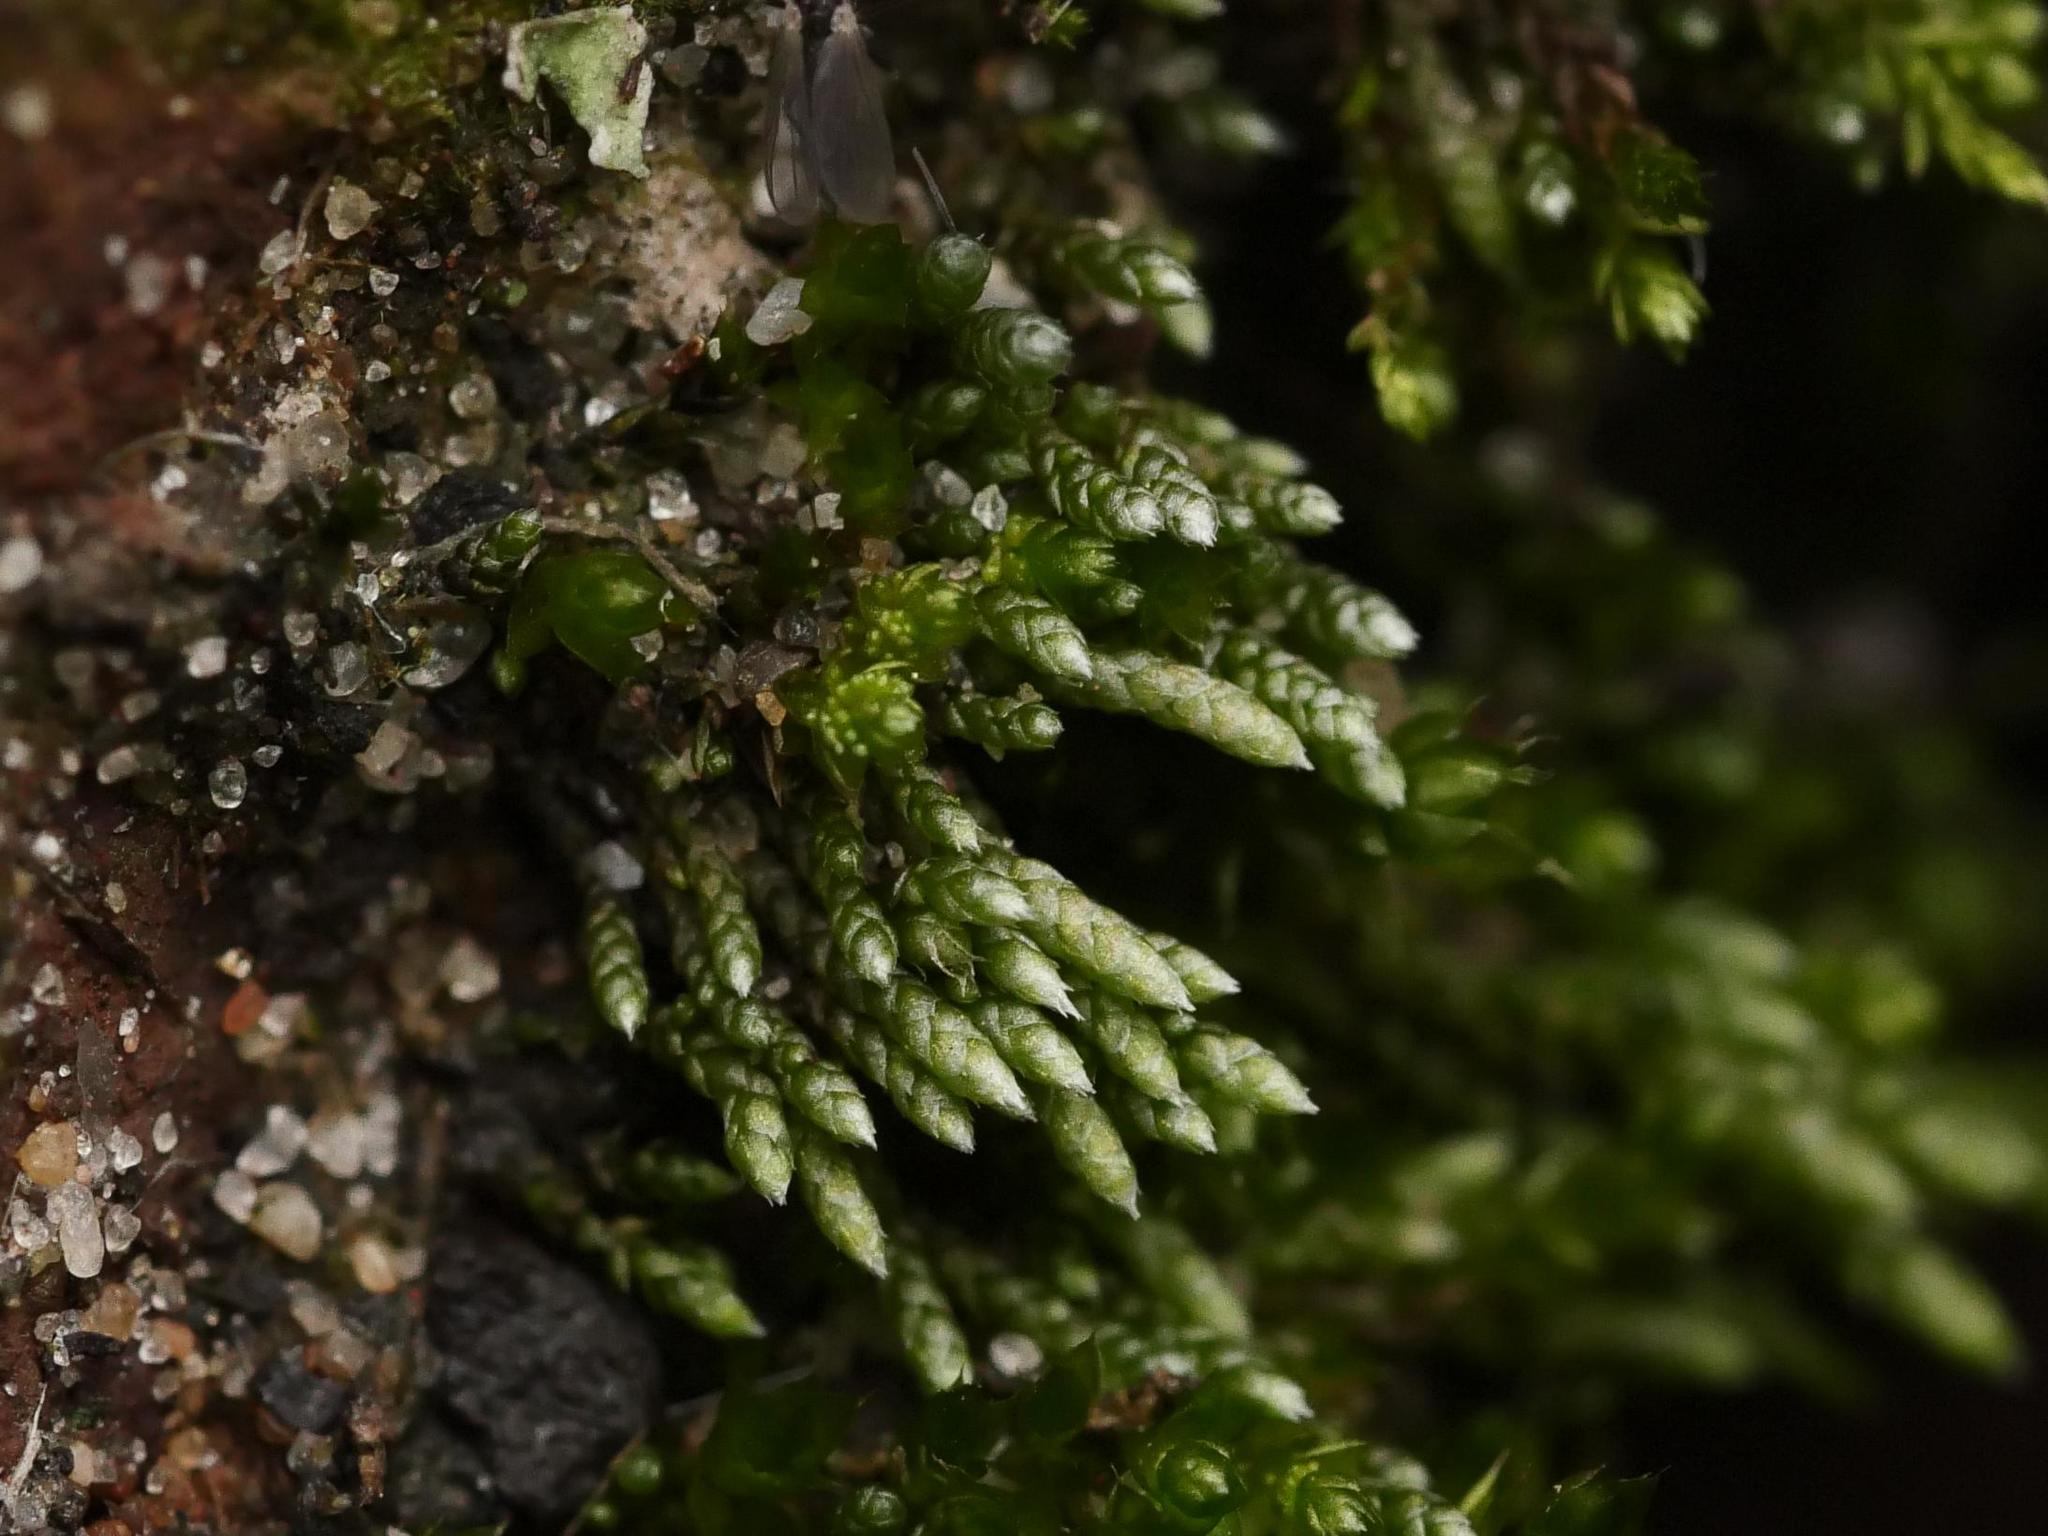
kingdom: Plantae
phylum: Bryophyta
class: Bryopsida
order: Bryales
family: Bryaceae
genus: Bryum
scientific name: Bryum argenteum
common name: Silver-moss
